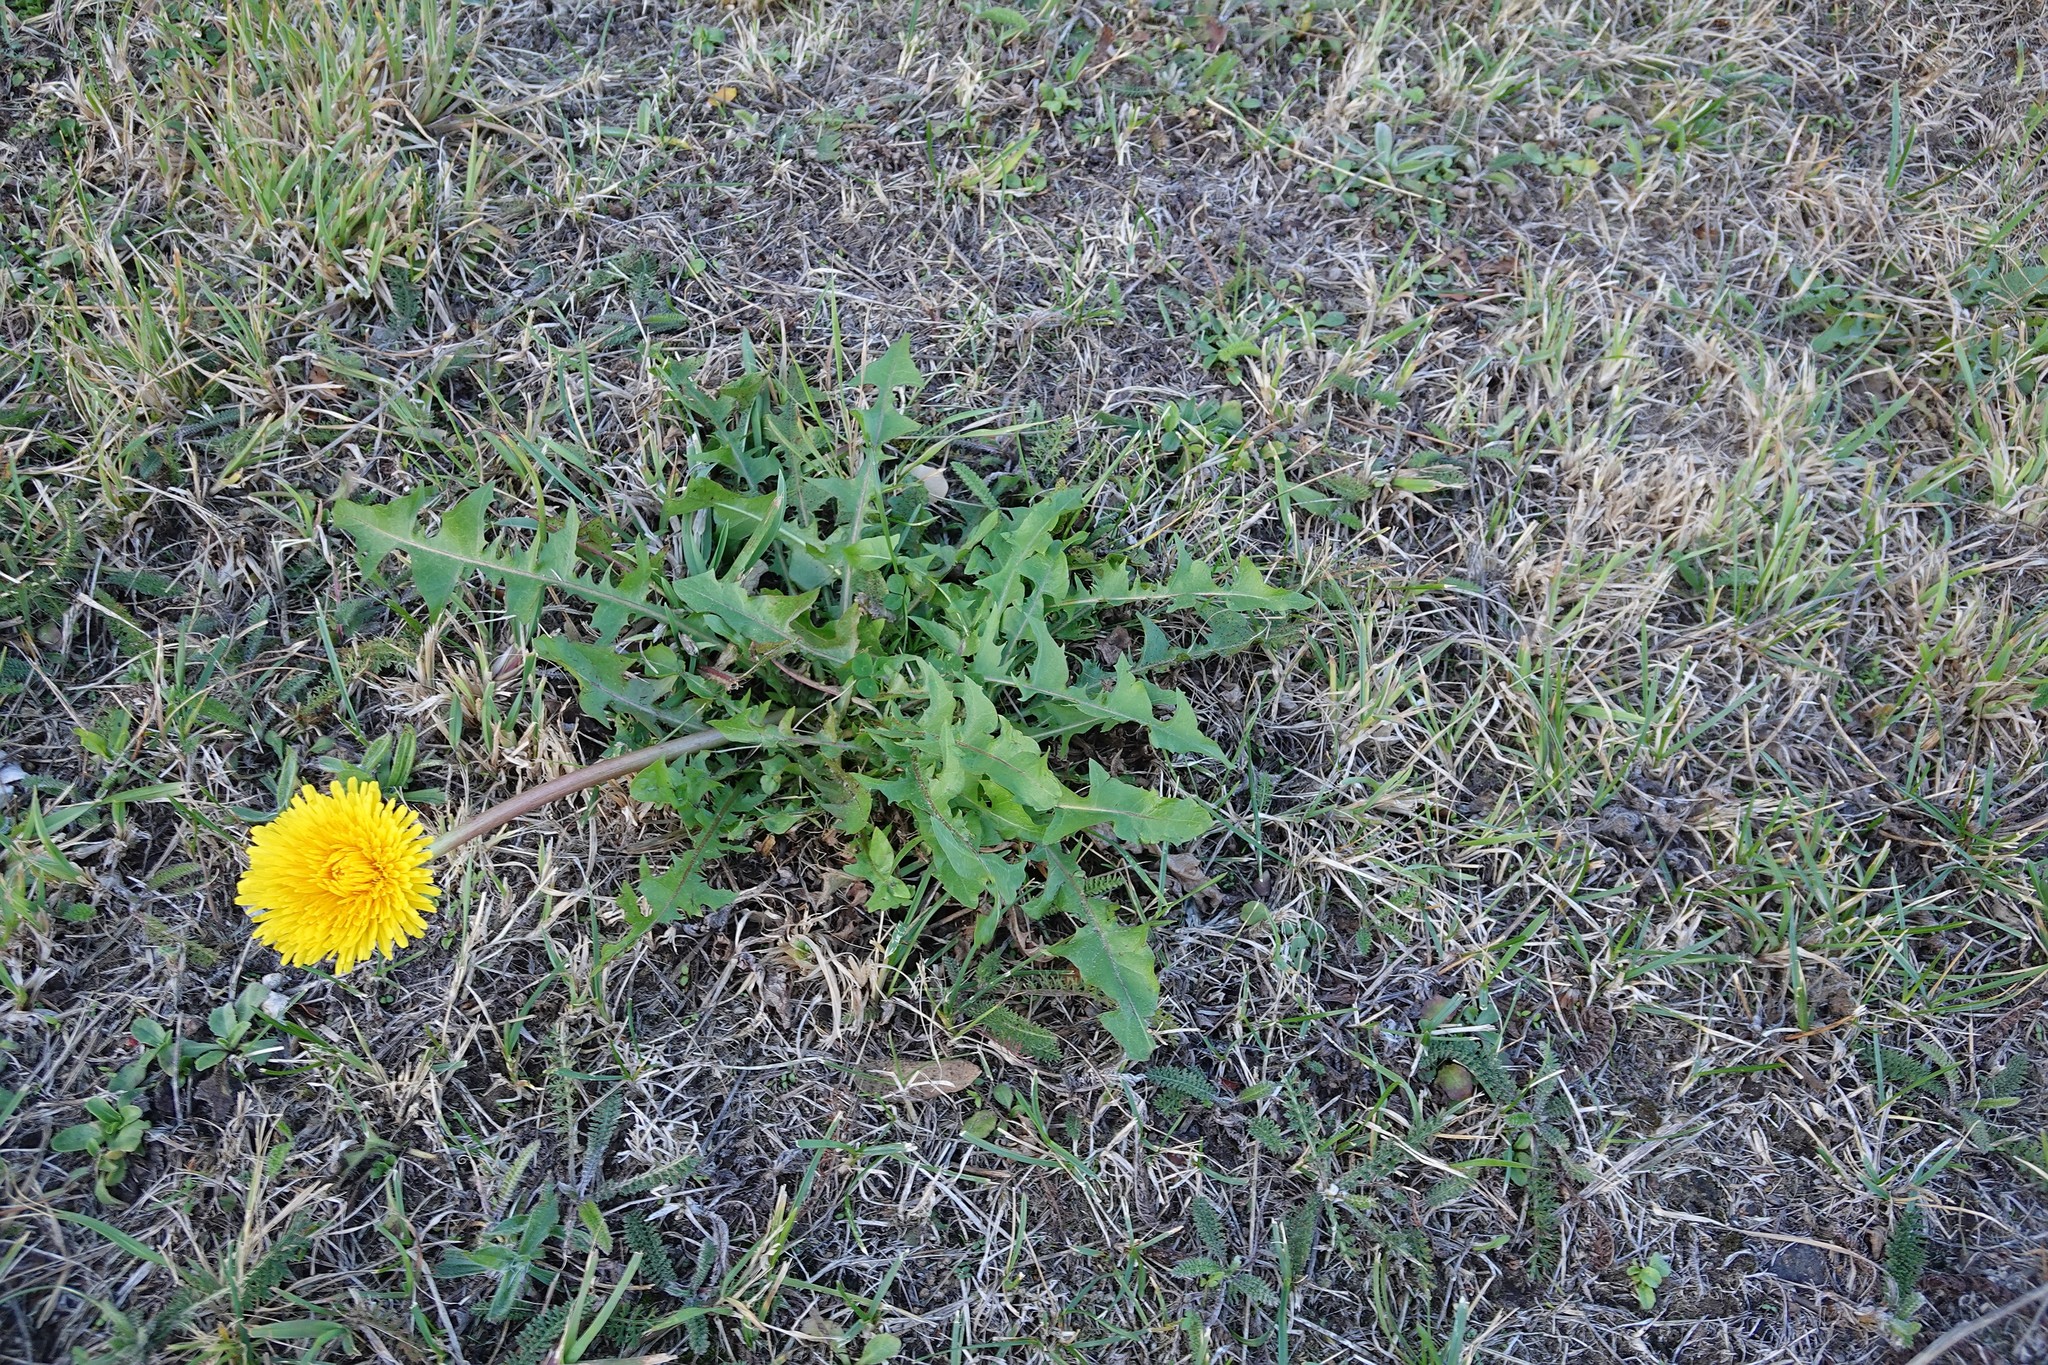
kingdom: Plantae
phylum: Tracheophyta
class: Magnoliopsida
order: Asterales
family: Asteraceae
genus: Taraxacum
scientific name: Taraxacum officinale
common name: Common dandelion
